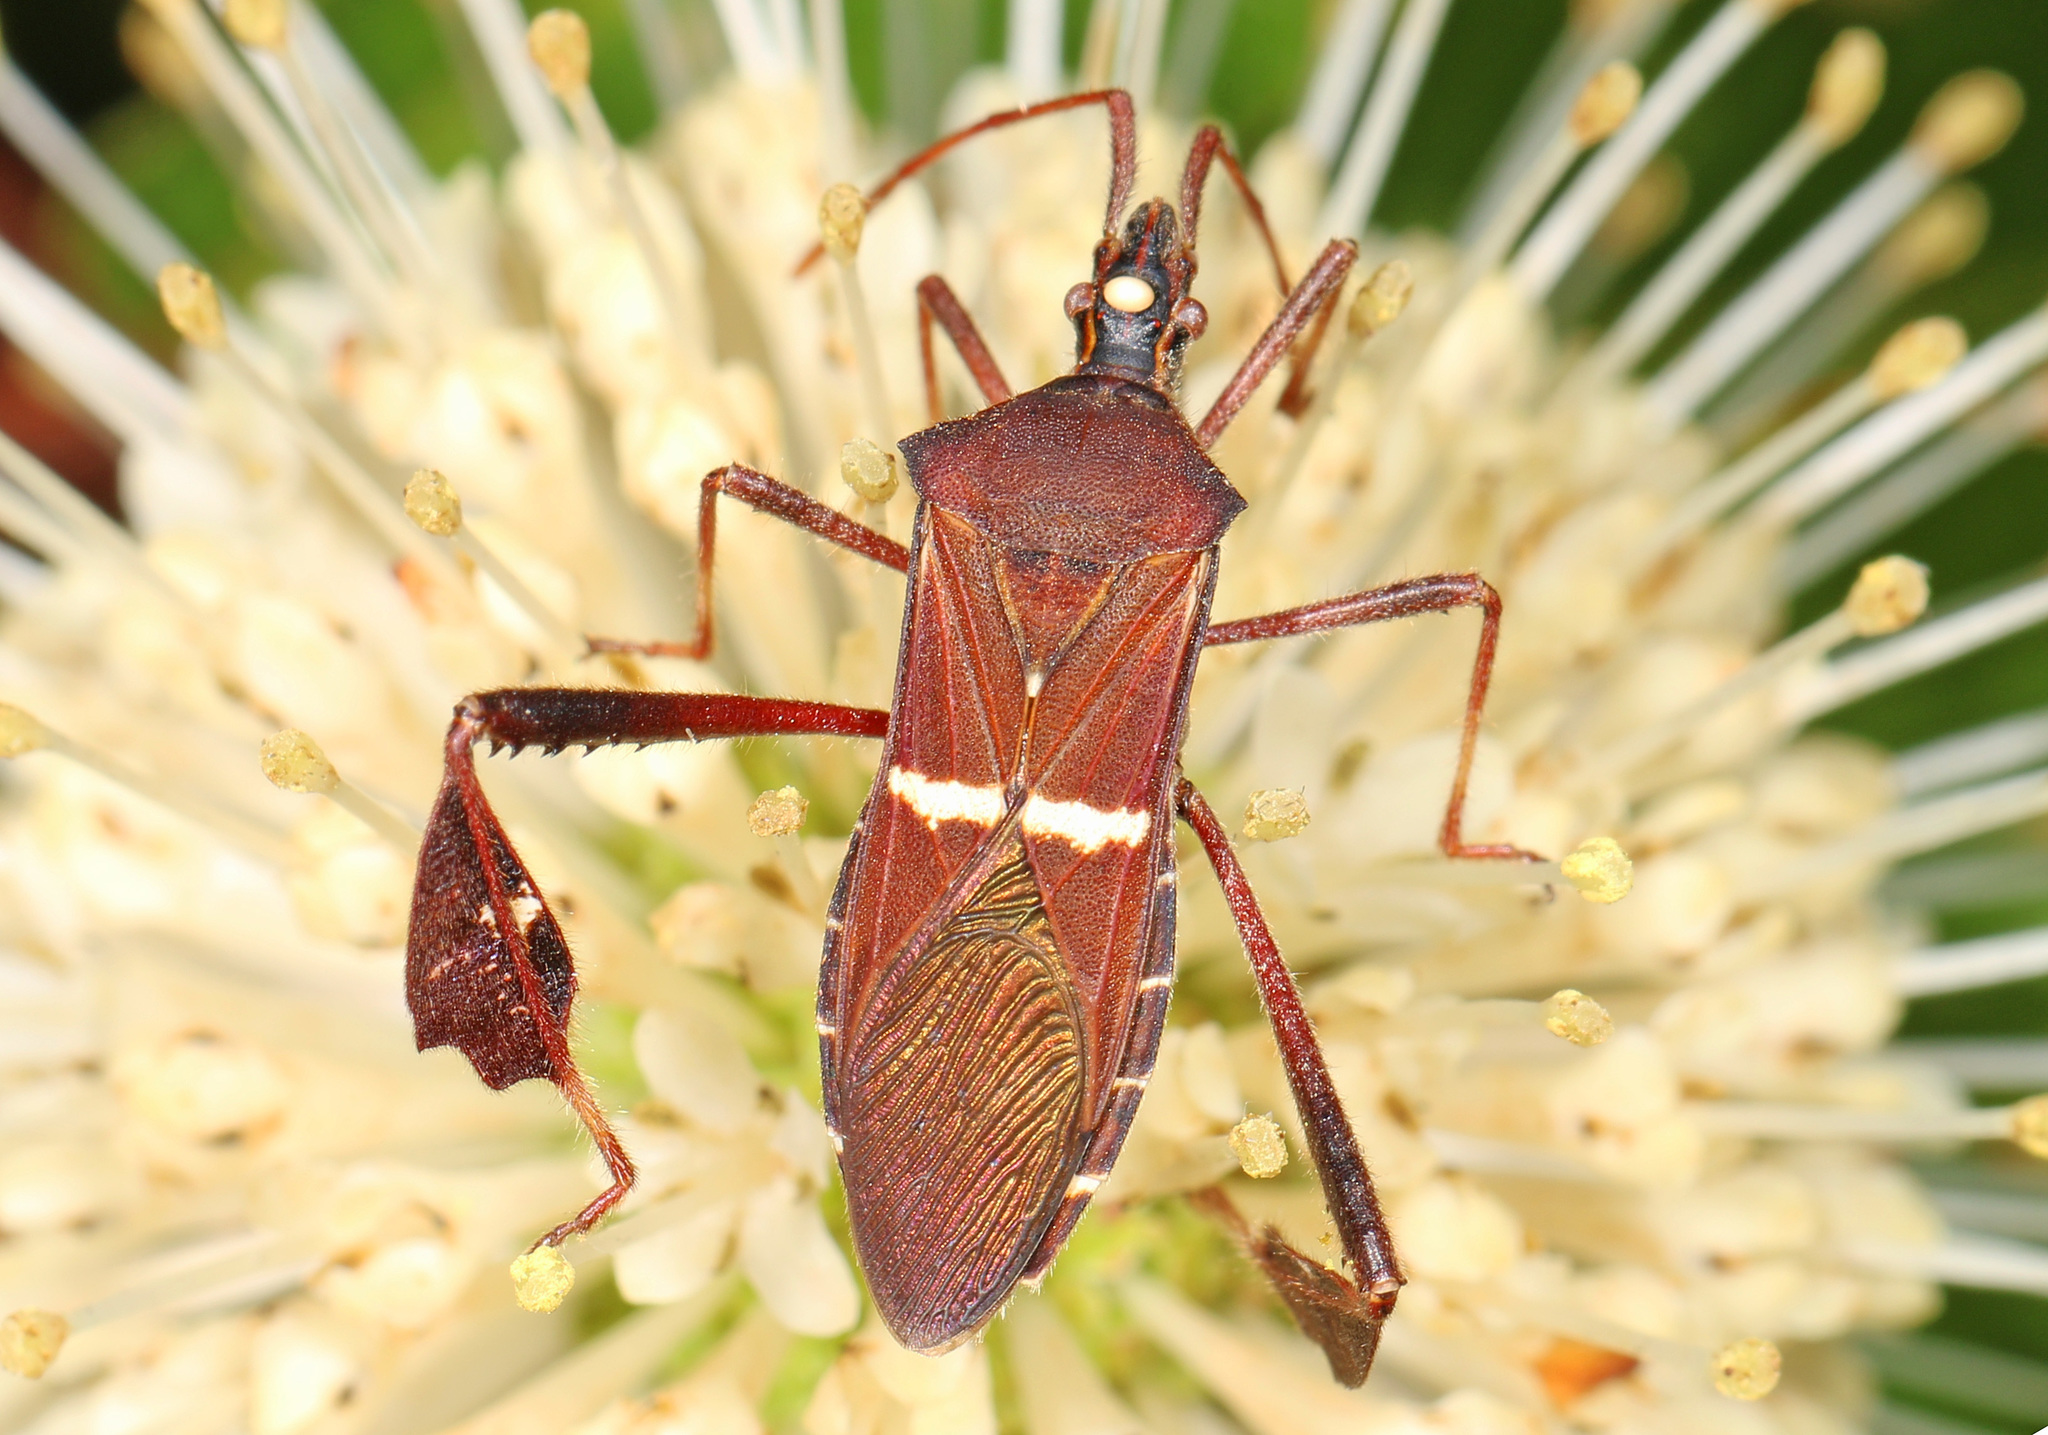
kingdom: Animalia
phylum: Arthropoda
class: Insecta
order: Hemiptera
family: Coreidae
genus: Leptoglossus
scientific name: Leptoglossus phyllopus
